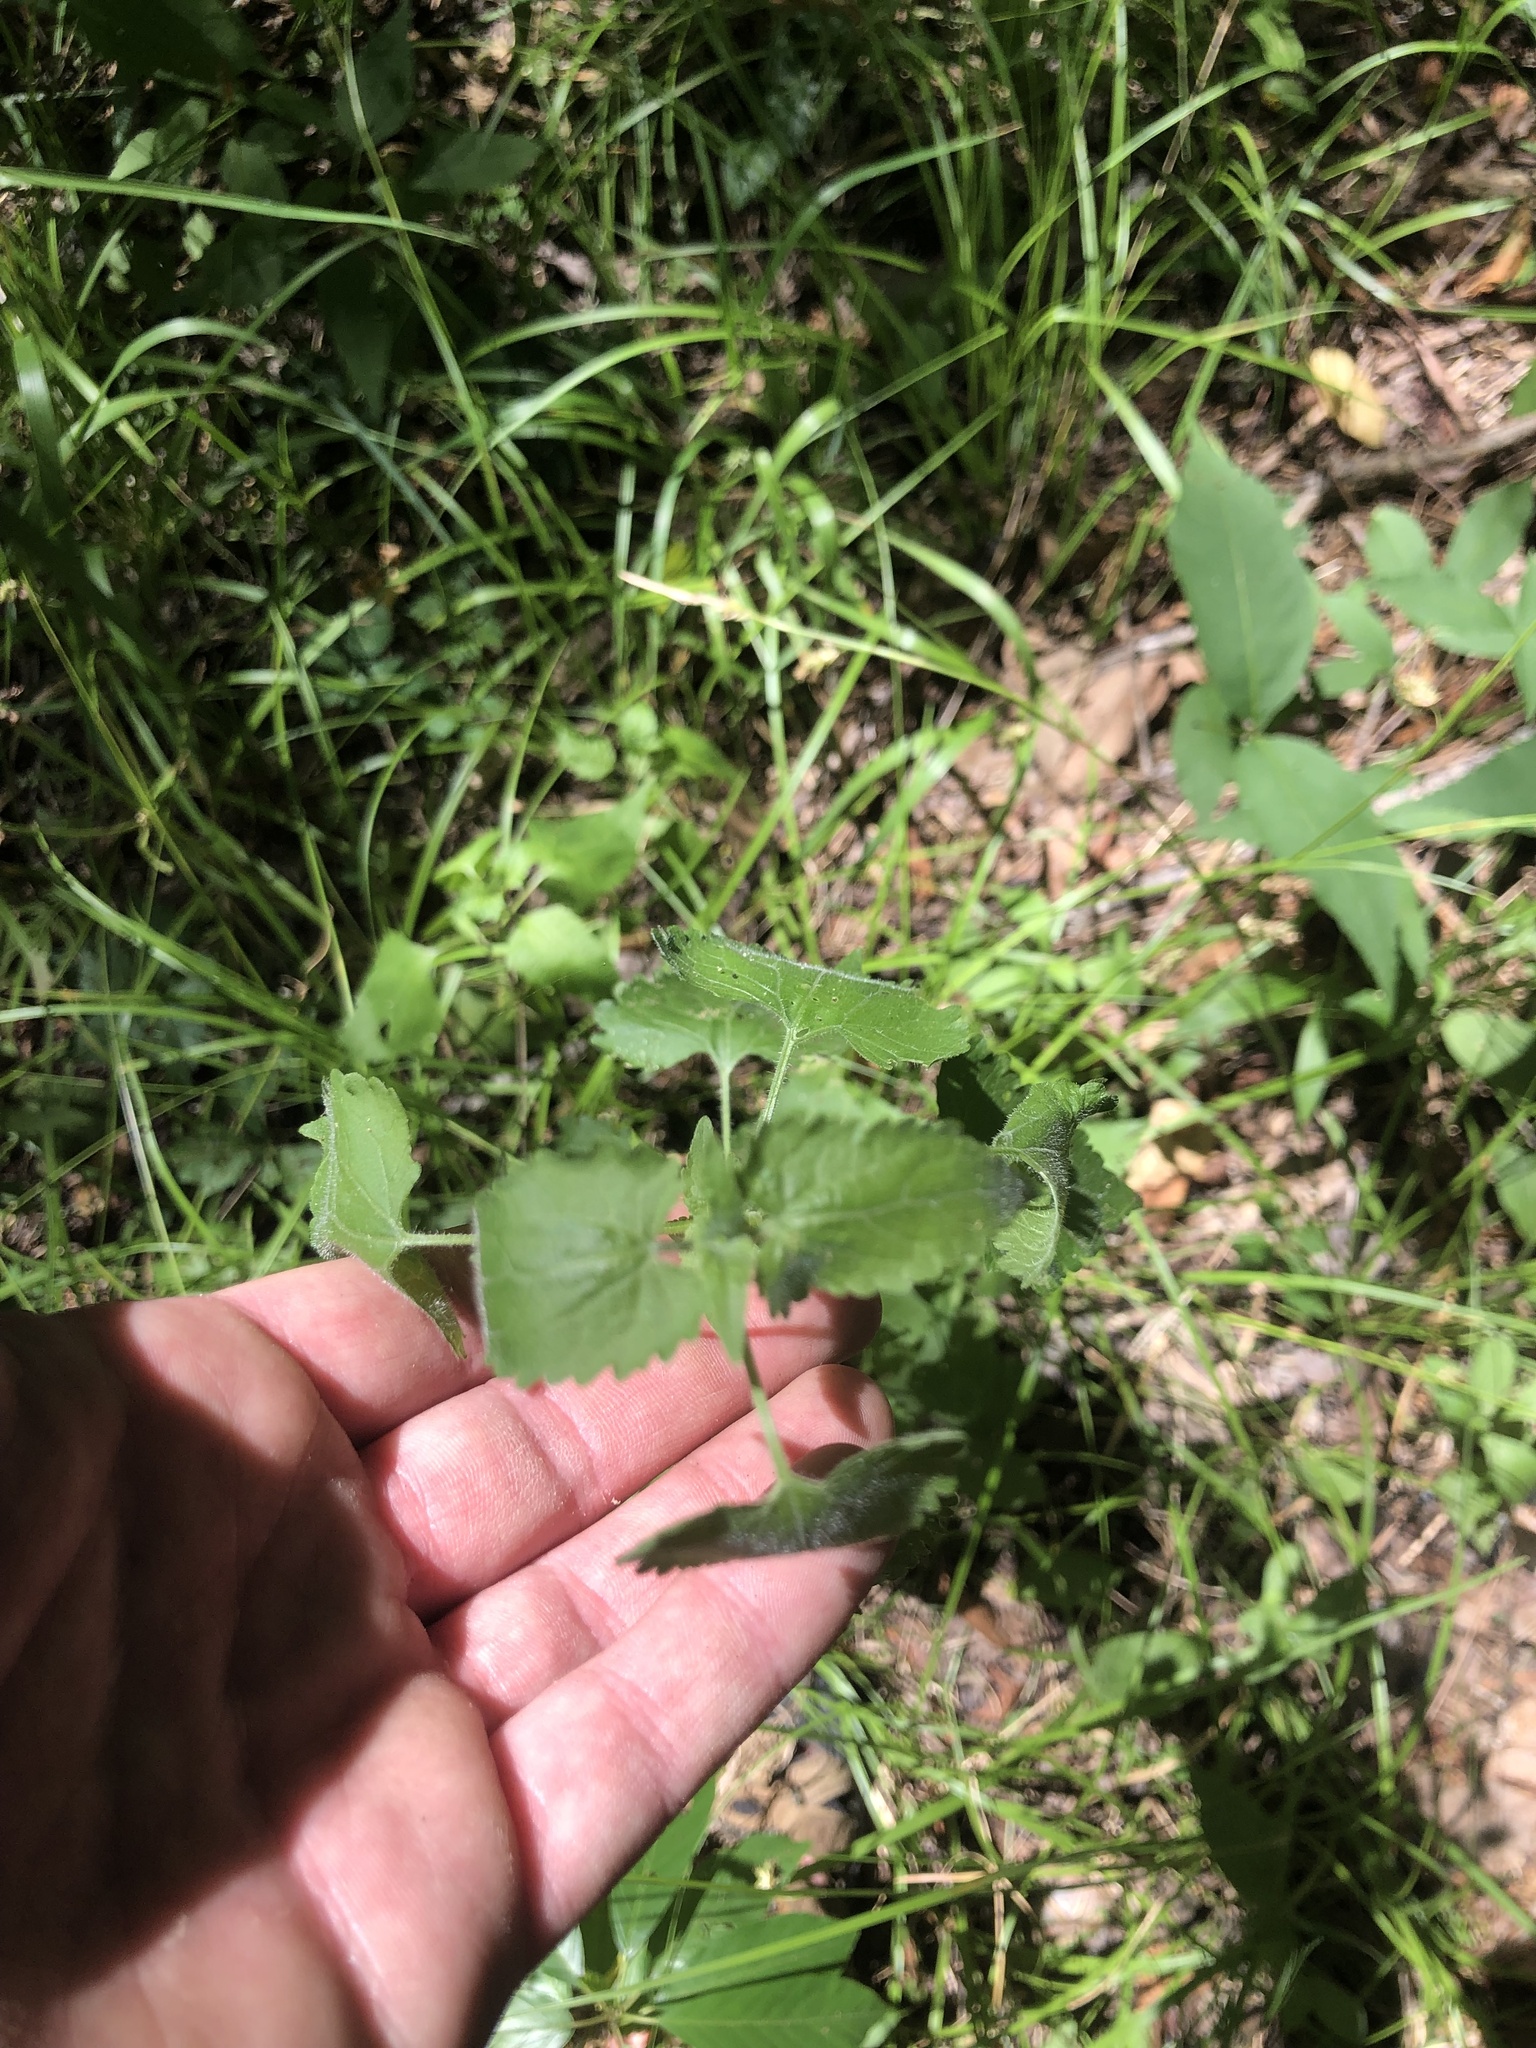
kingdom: Plantae
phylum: Tracheophyta
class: Magnoliopsida
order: Asterales
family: Asteraceae
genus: Fleischmannia
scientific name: Fleischmannia incarnata
